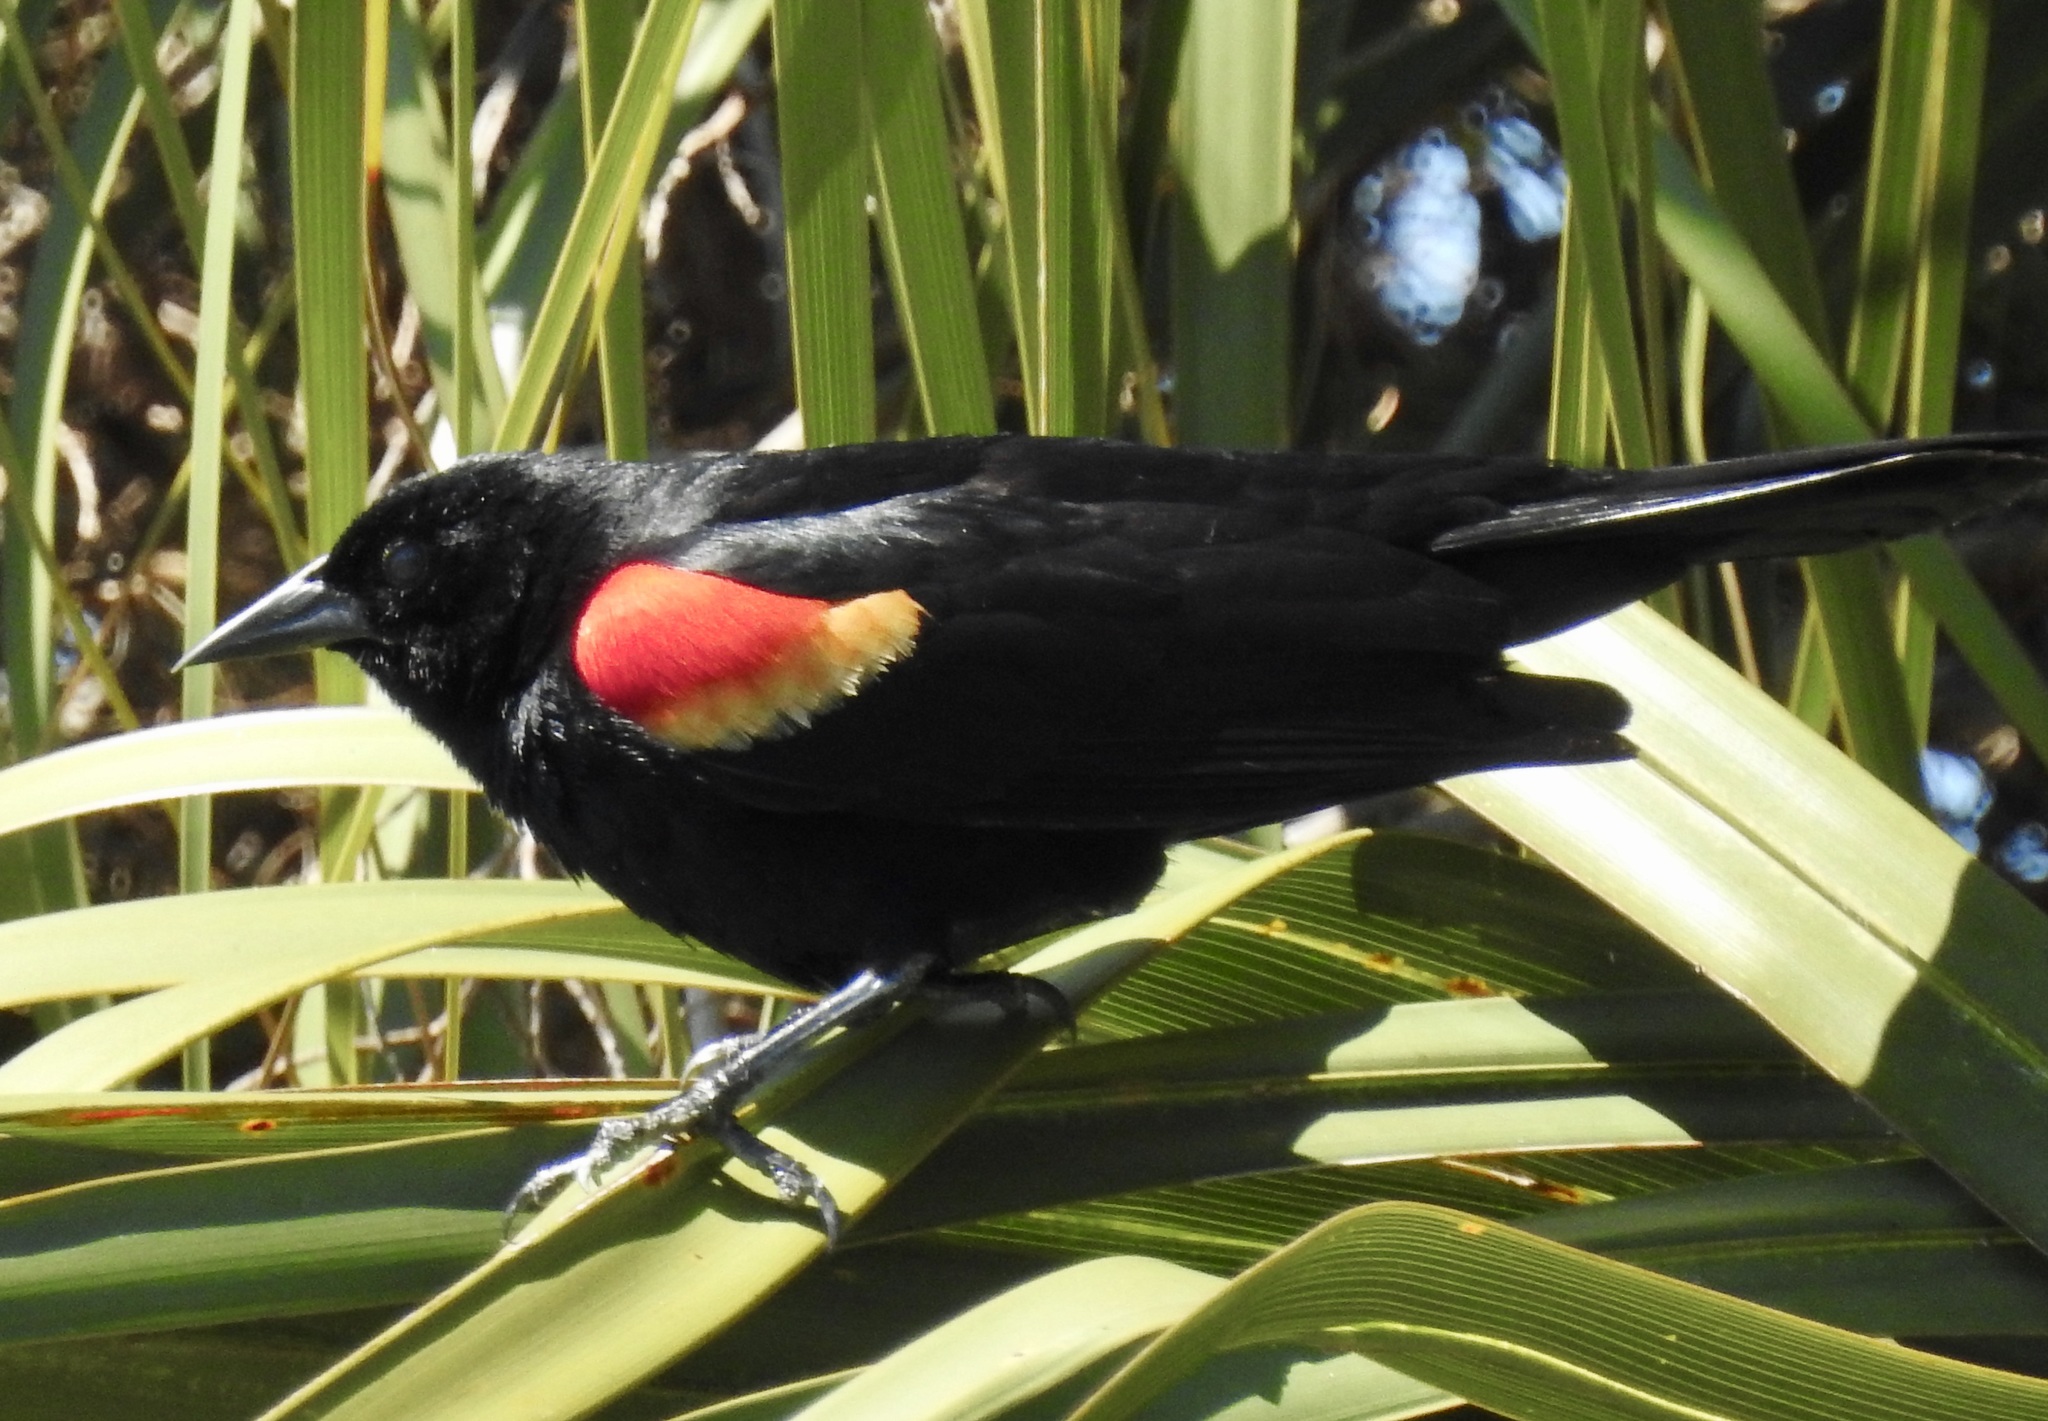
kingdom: Animalia
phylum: Chordata
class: Aves
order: Passeriformes
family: Icteridae
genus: Agelaius
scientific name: Agelaius phoeniceus
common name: Red-winged blackbird
